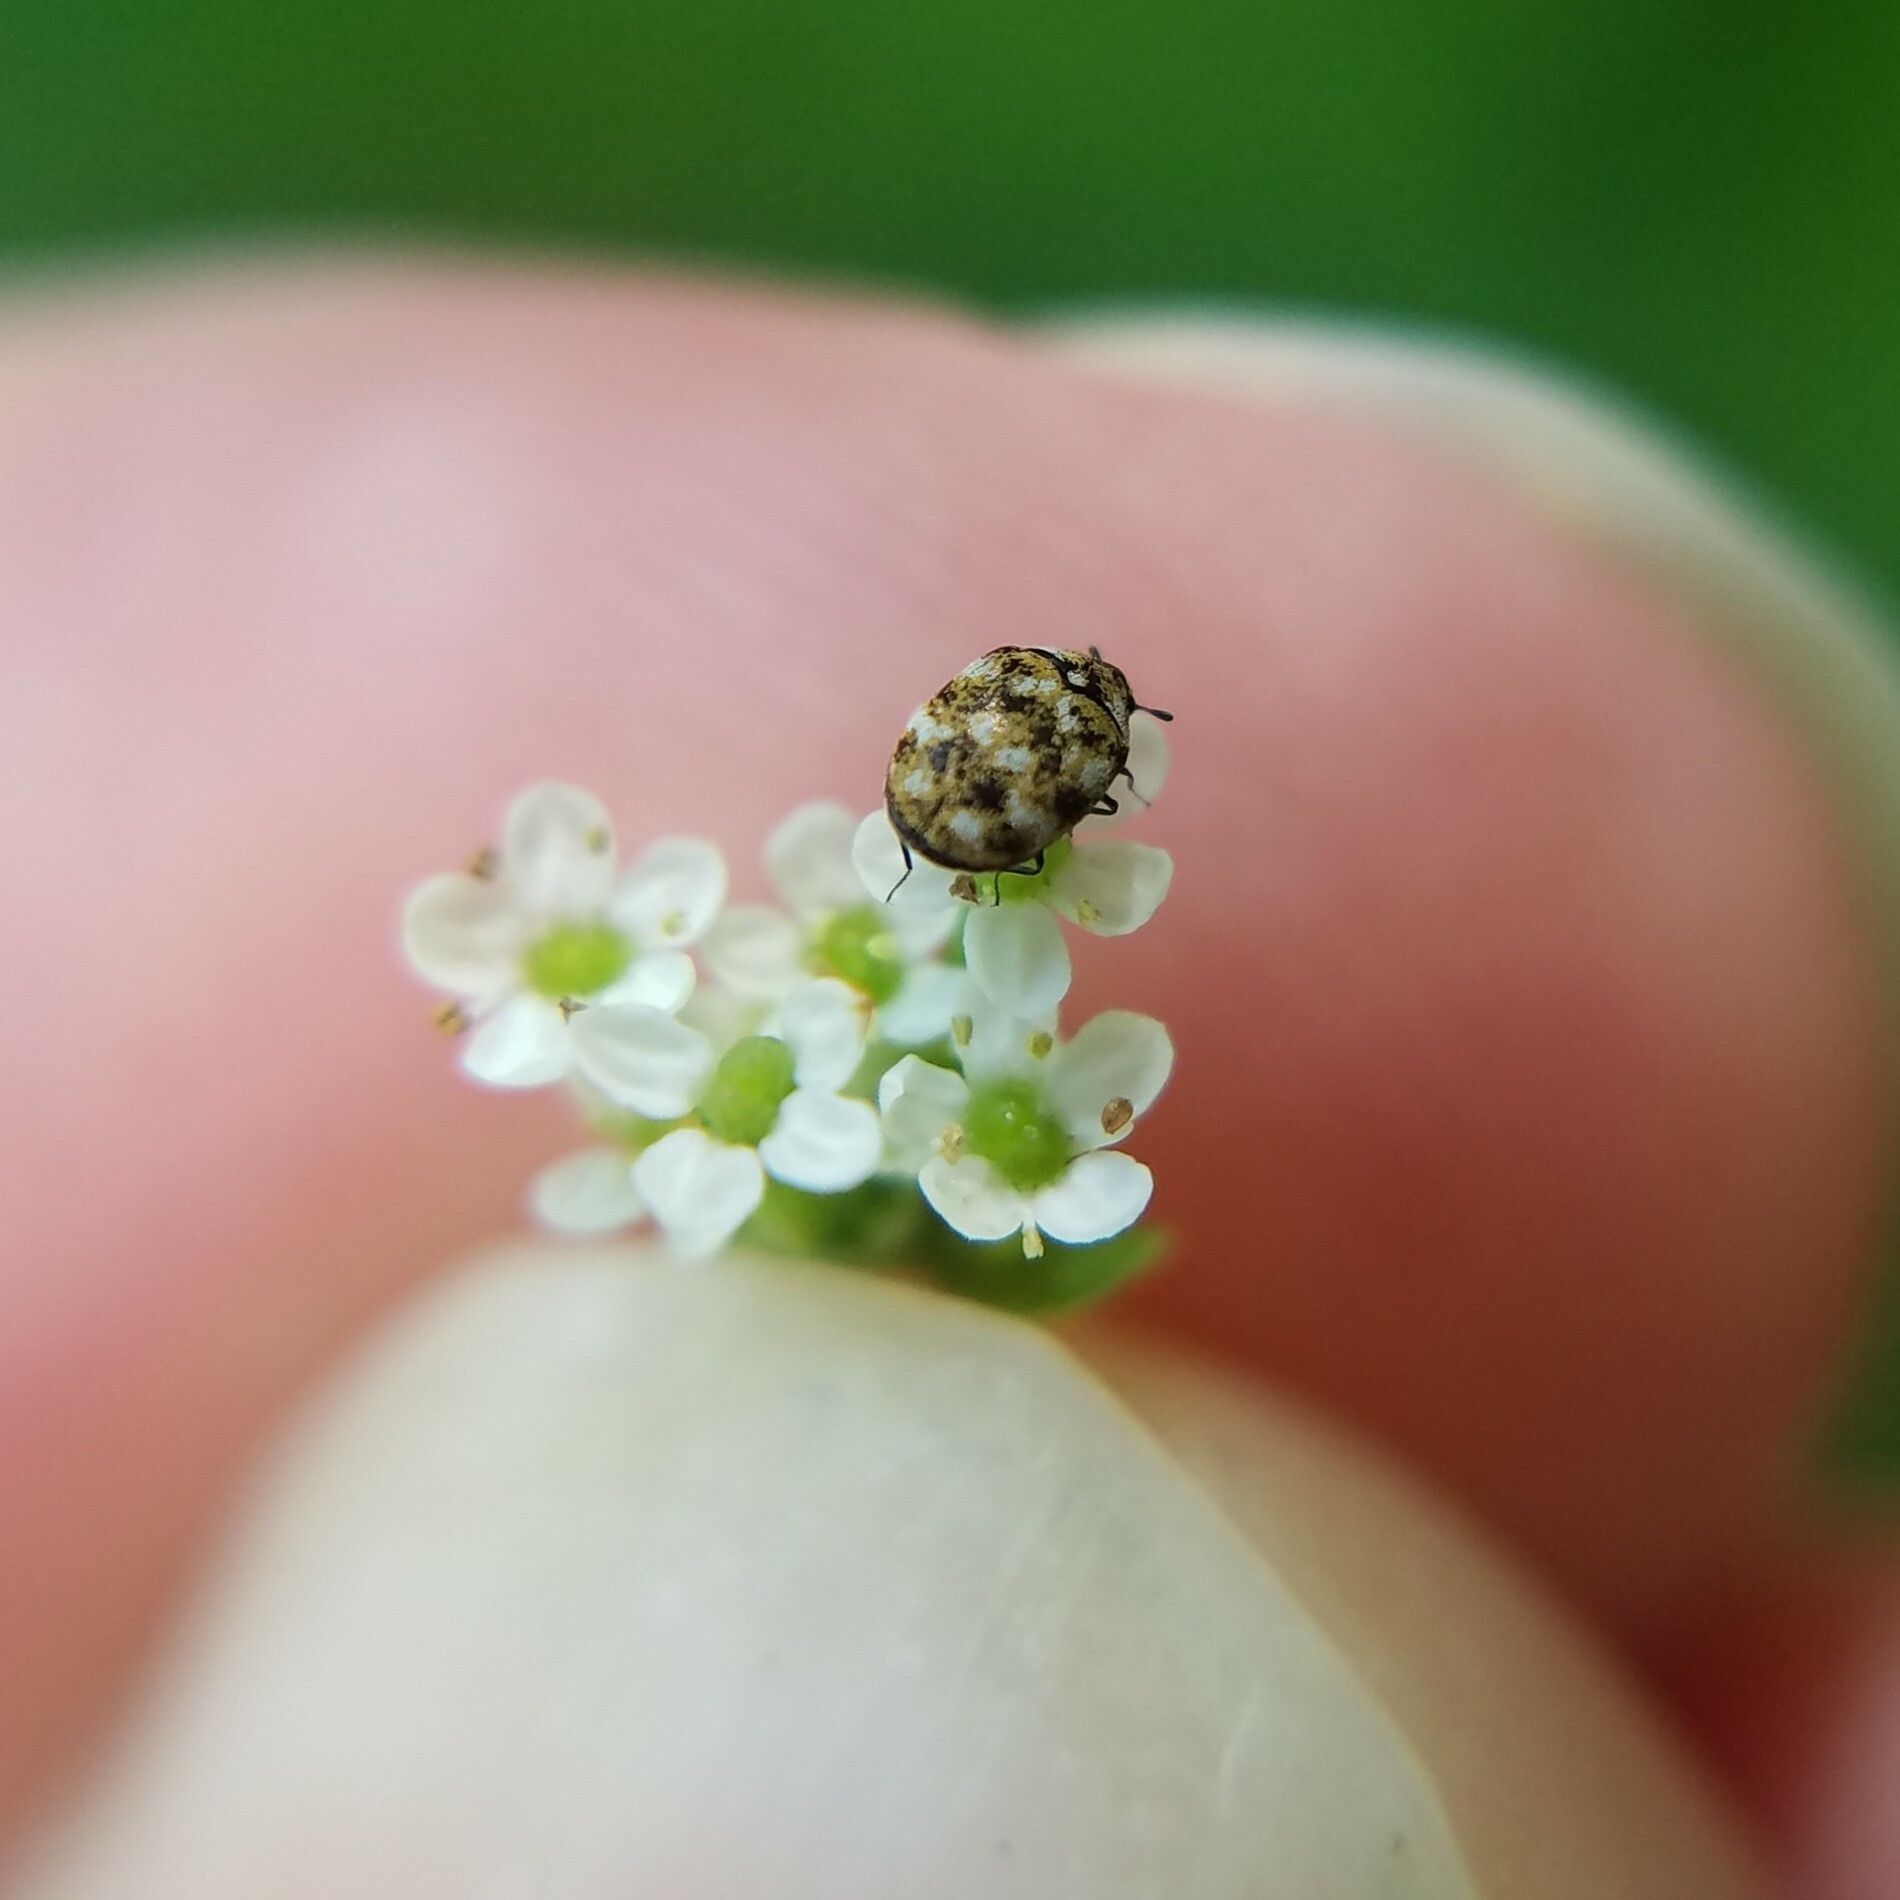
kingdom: Animalia
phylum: Arthropoda
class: Insecta
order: Coleoptera
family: Dermestidae
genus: Anthrenus
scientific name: Anthrenus verbasci
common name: Varied carpet beetle
